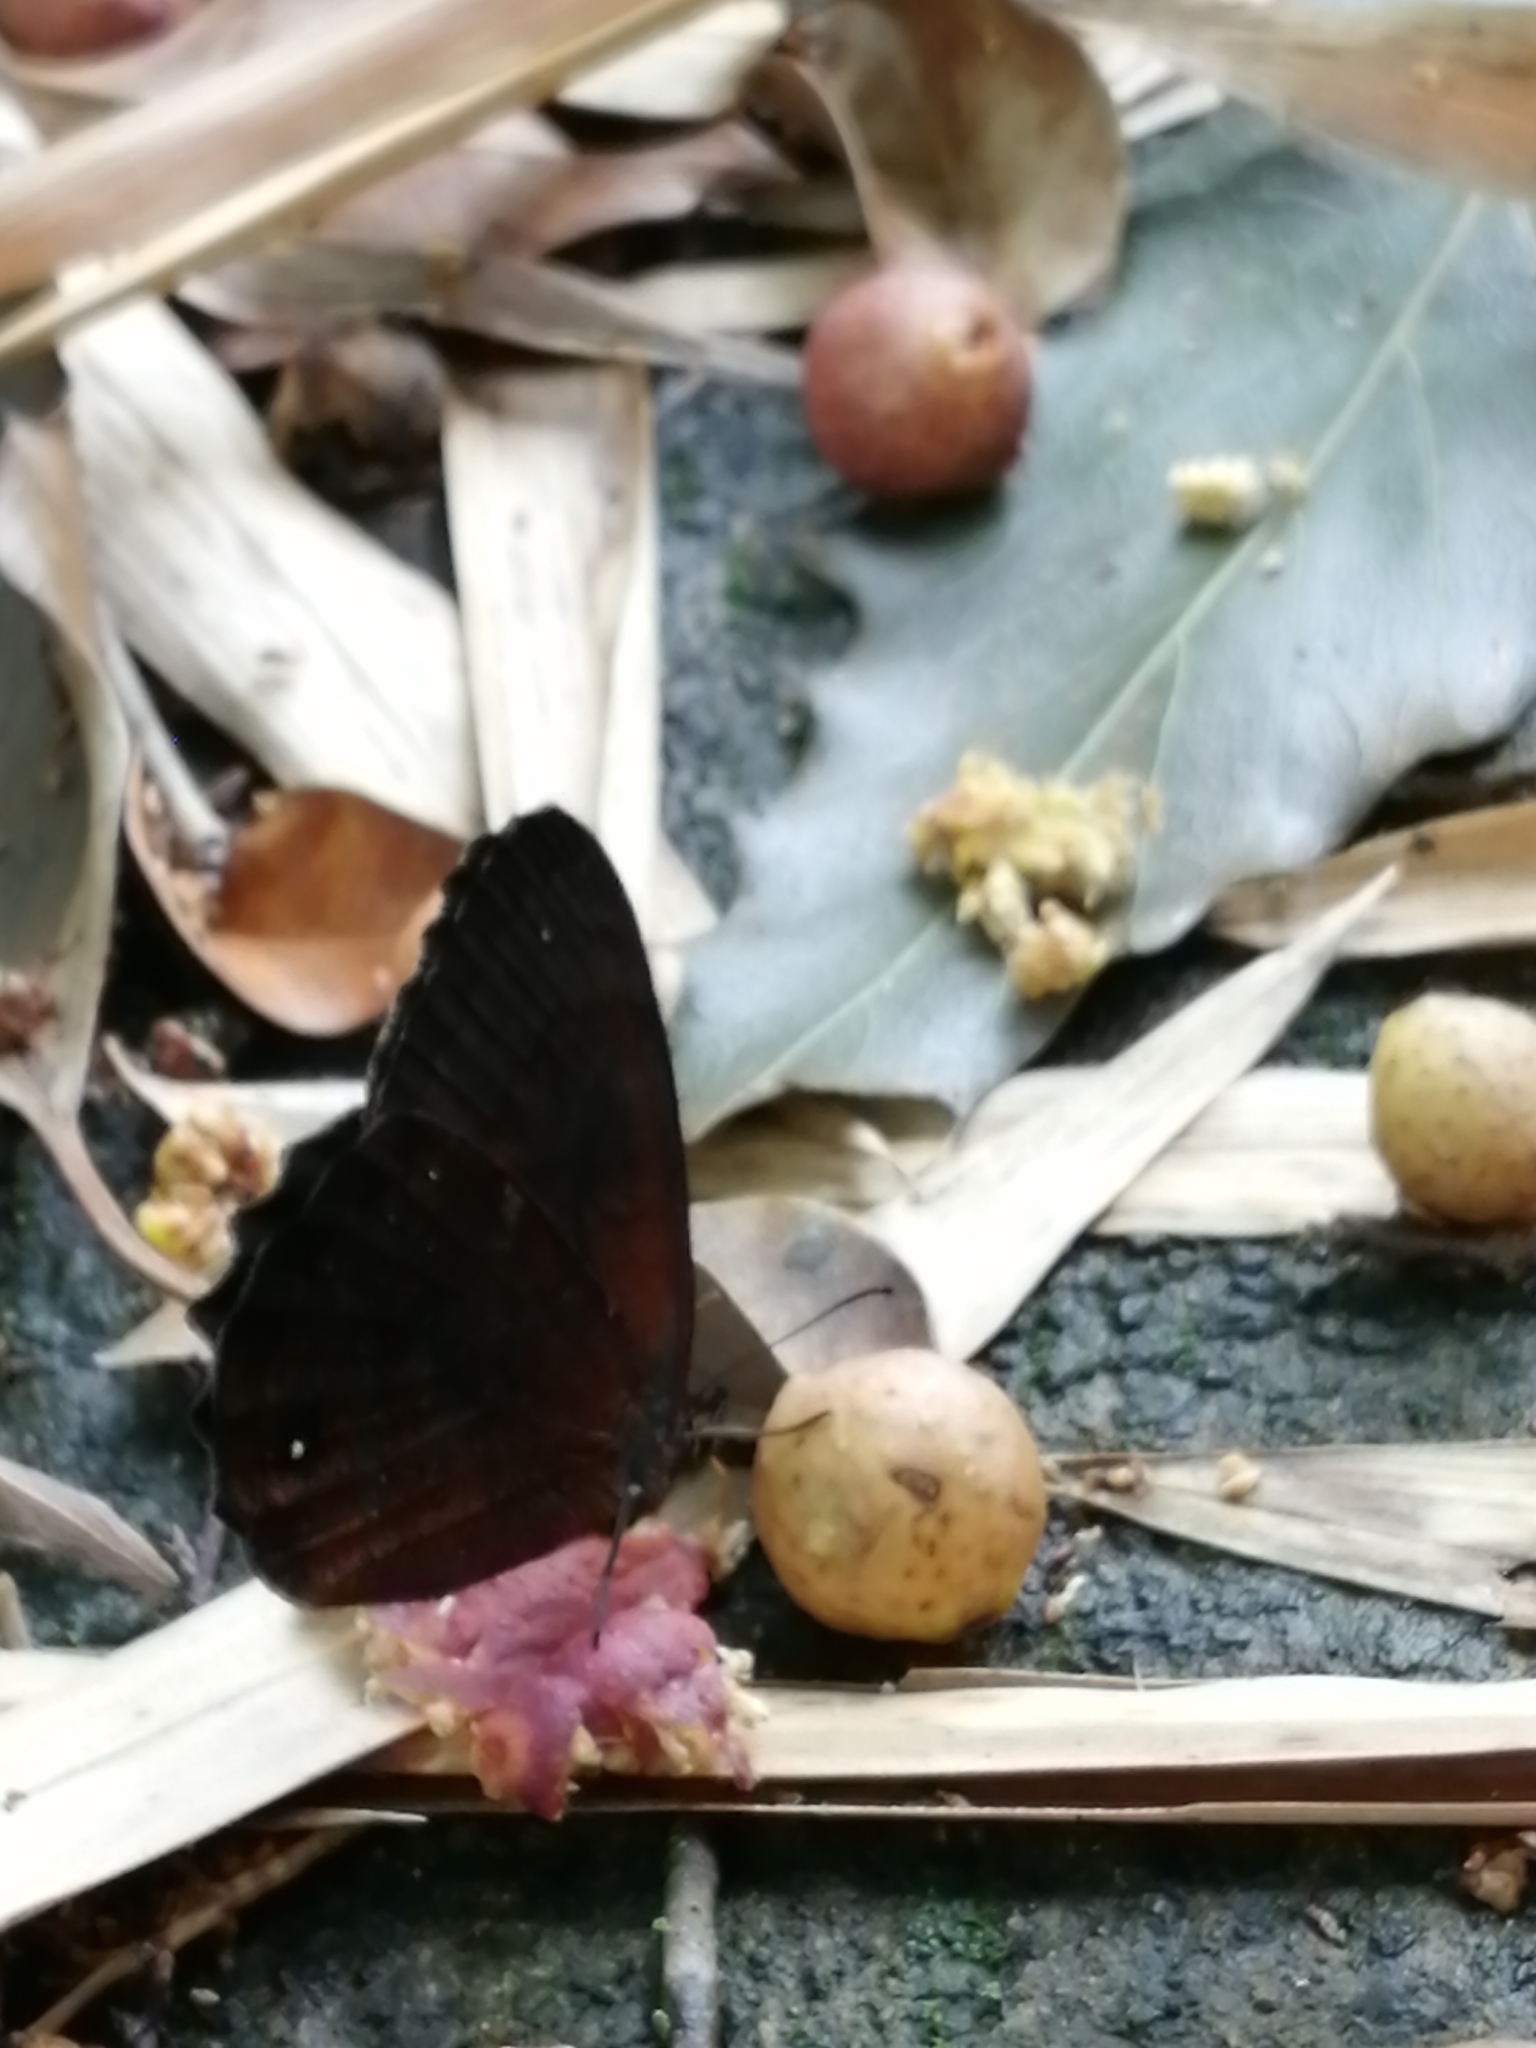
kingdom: Animalia
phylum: Arthropoda
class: Insecta
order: Lepidoptera
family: Nymphalidae
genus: Pedaliodes
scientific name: Pedaliodes pisonia
